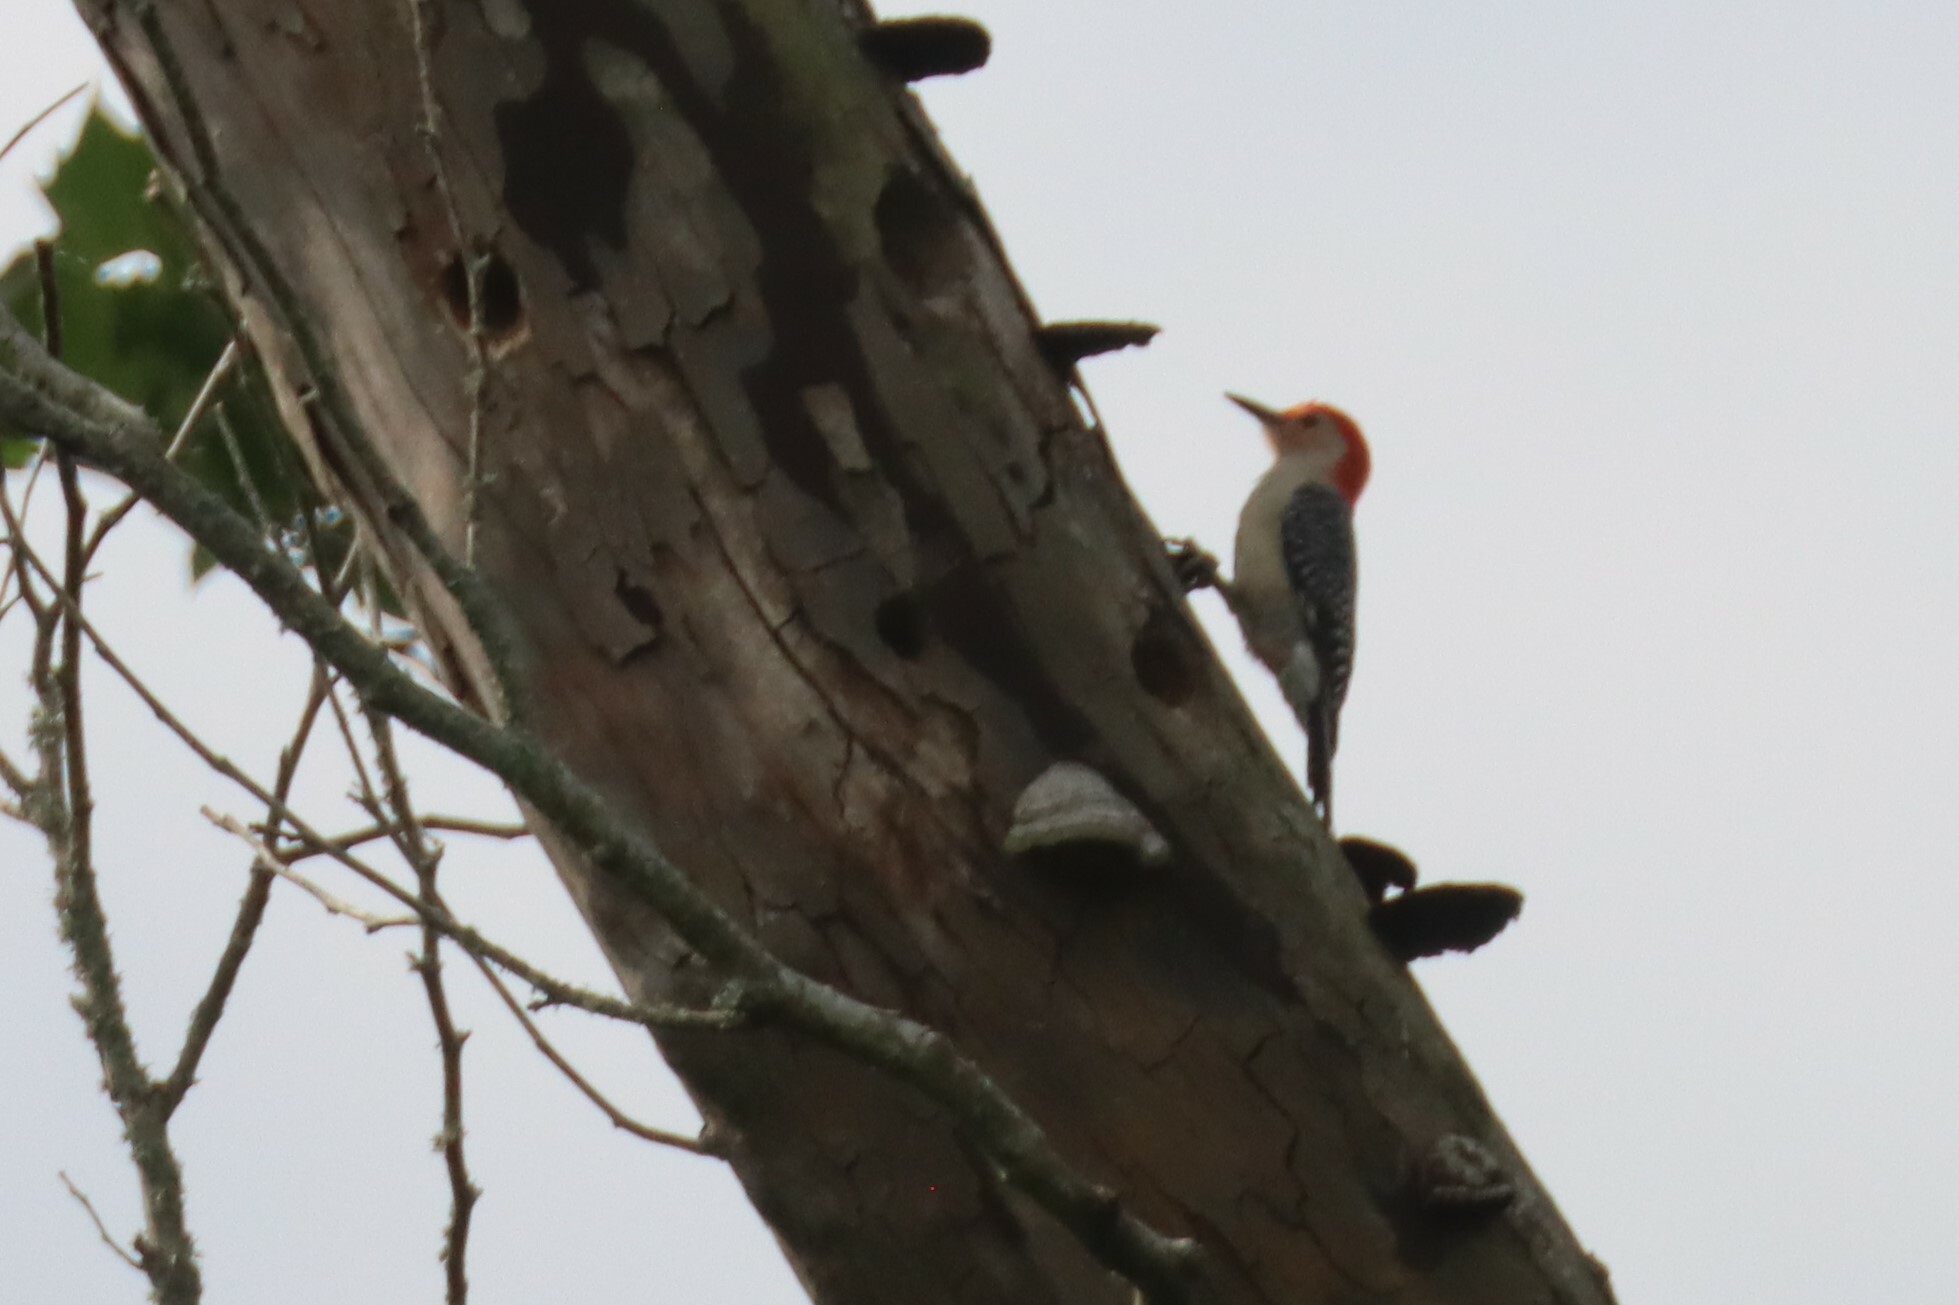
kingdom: Animalia
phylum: Chordata
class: Aves
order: Piciformes
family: Picidae
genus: Melanerpes
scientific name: Melanerpes carolinus
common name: Red-bellied woodpecker
